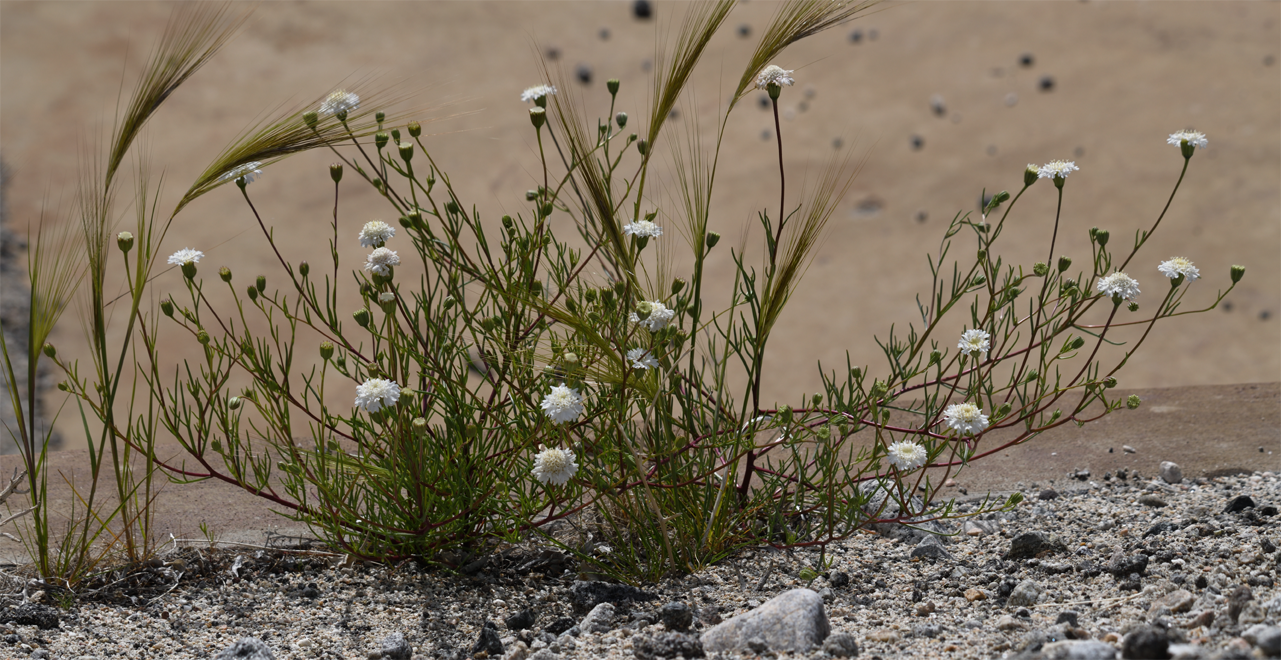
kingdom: Plantae
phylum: Tracheophyta
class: Magnoliopsida
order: Asterales
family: Asteraceae
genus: Chaenactis
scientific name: Chaenactis fremontii
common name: Fremont pincushion
